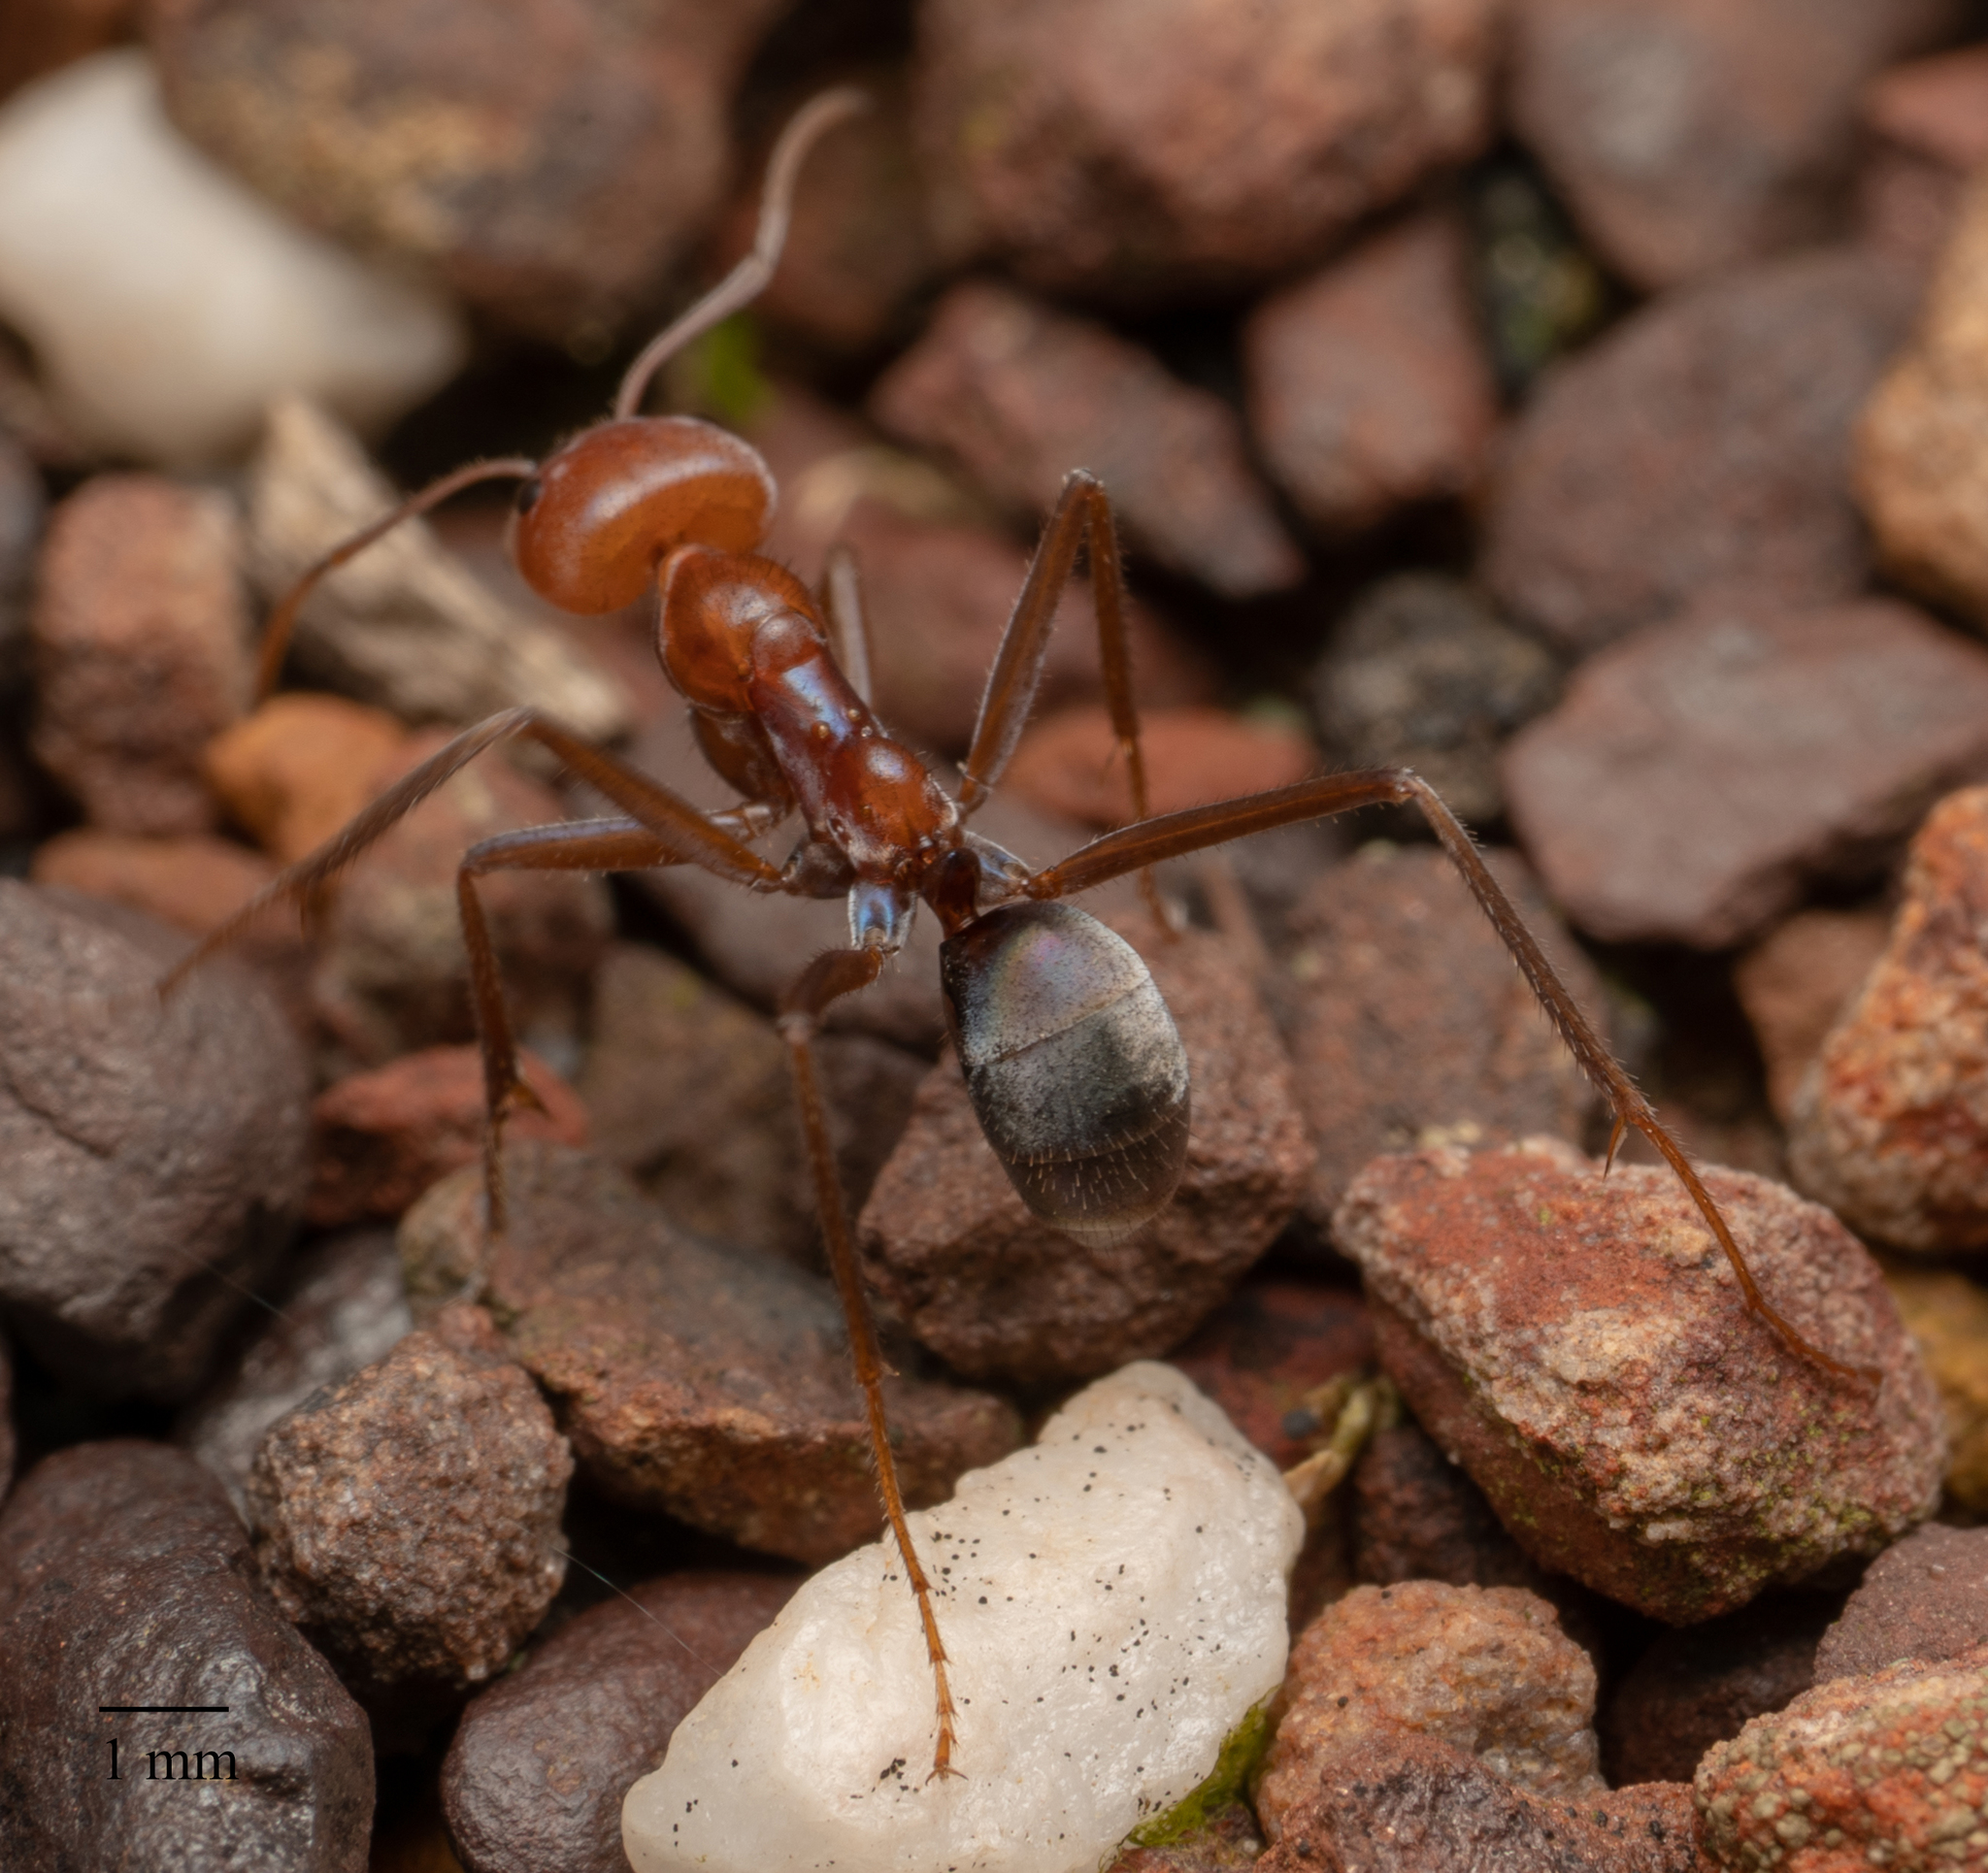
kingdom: Animalia
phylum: Arthropoda
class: Insecta
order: Hymenoptera
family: Formicidae
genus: Iridomyrmex
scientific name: Iridomyrmex purpureus
